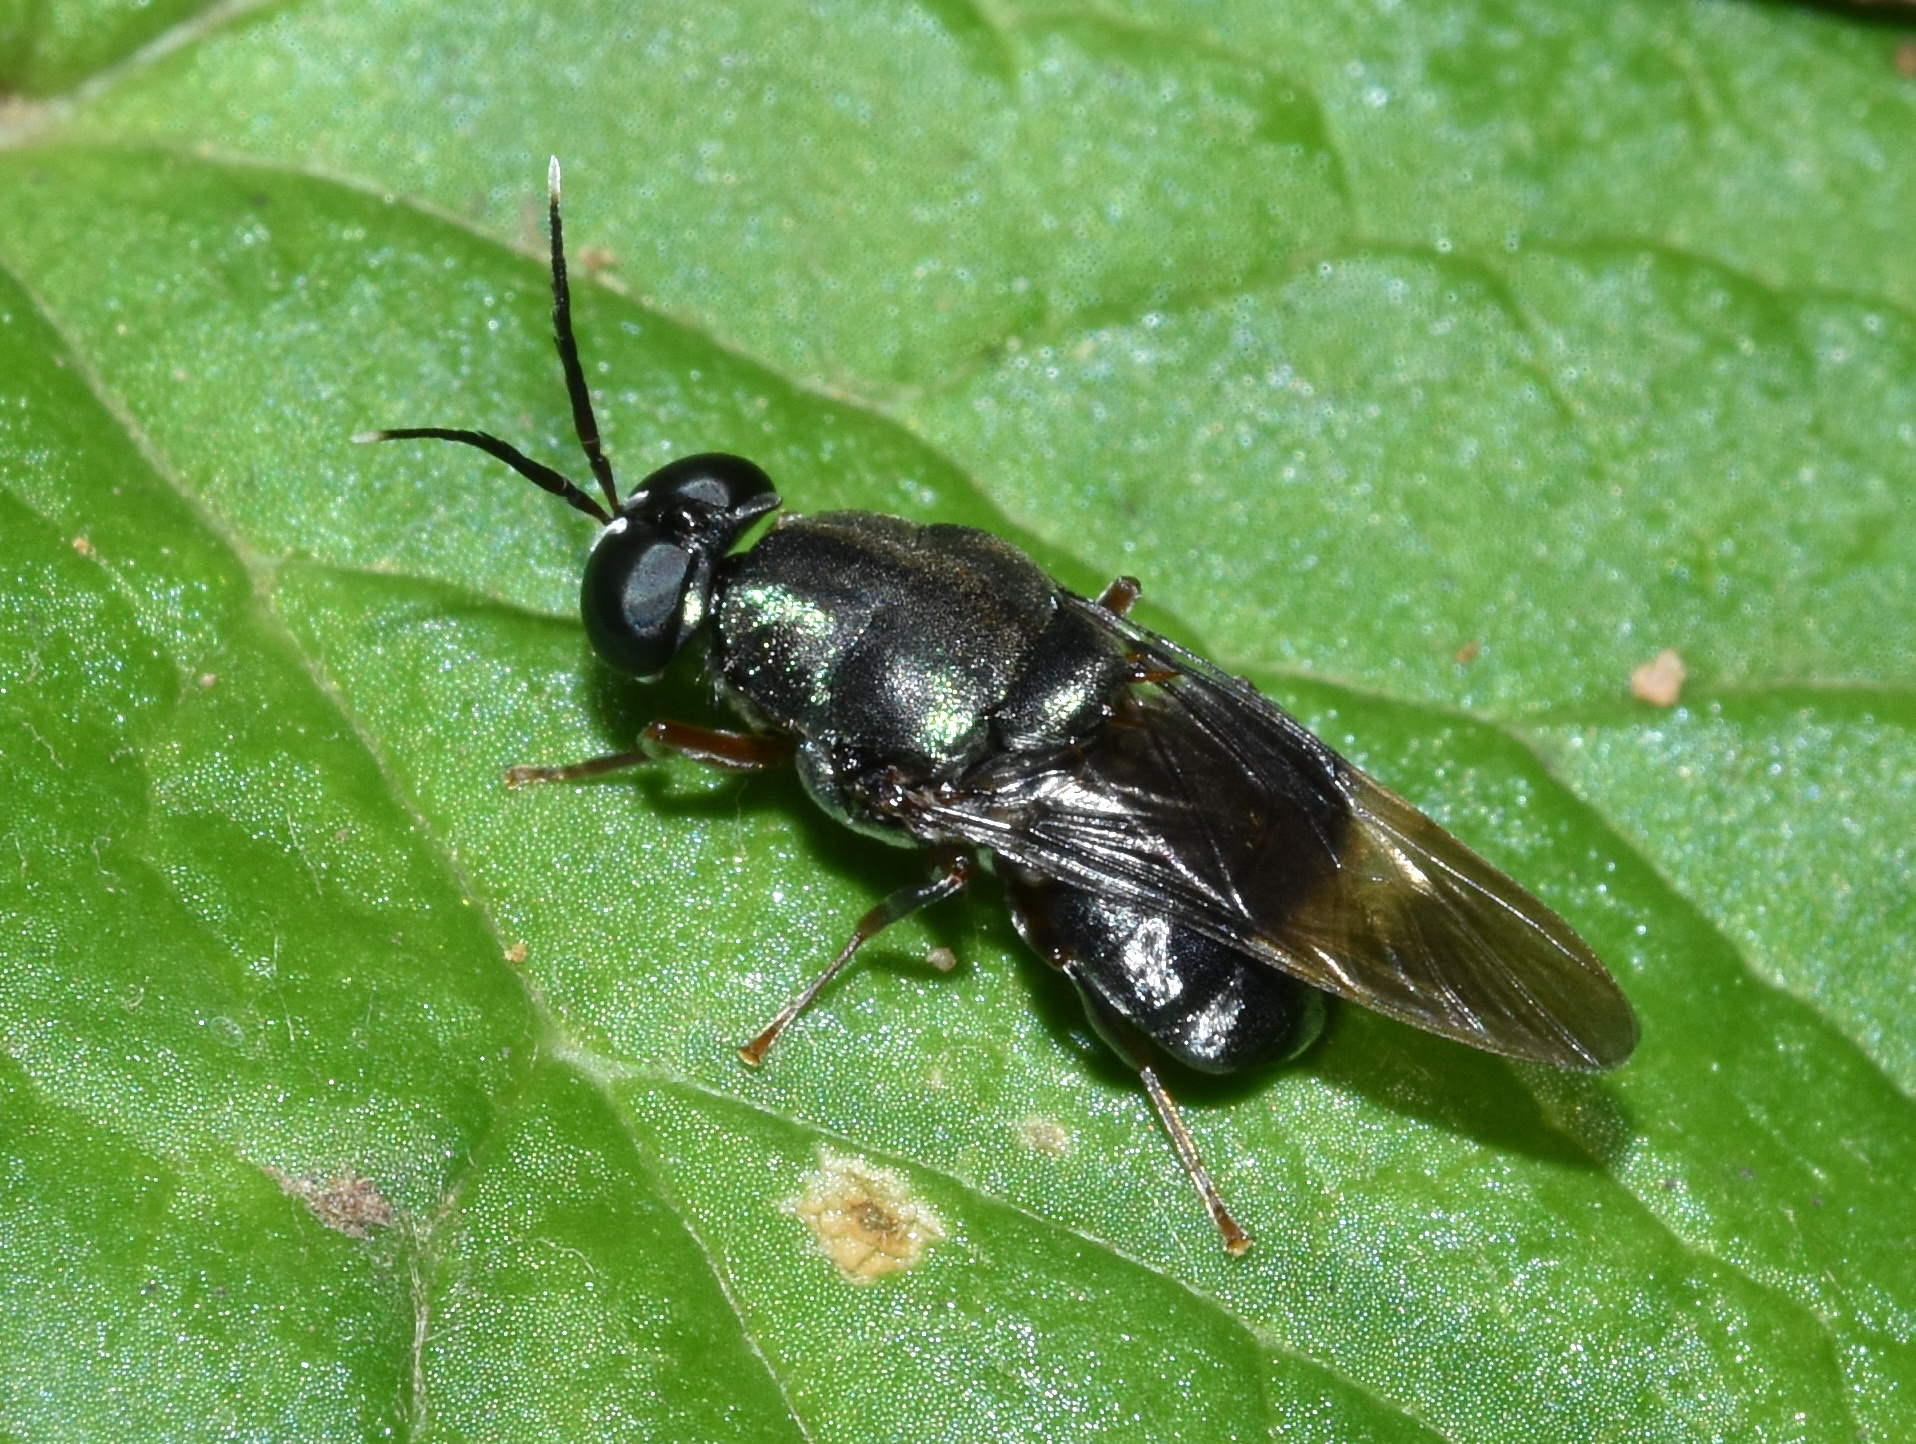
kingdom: Animalia
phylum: Arthropoda
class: Insecta
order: Diptera
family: Stratiomyidae
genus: Isomerocera
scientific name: Isomerocera quadrilineata
